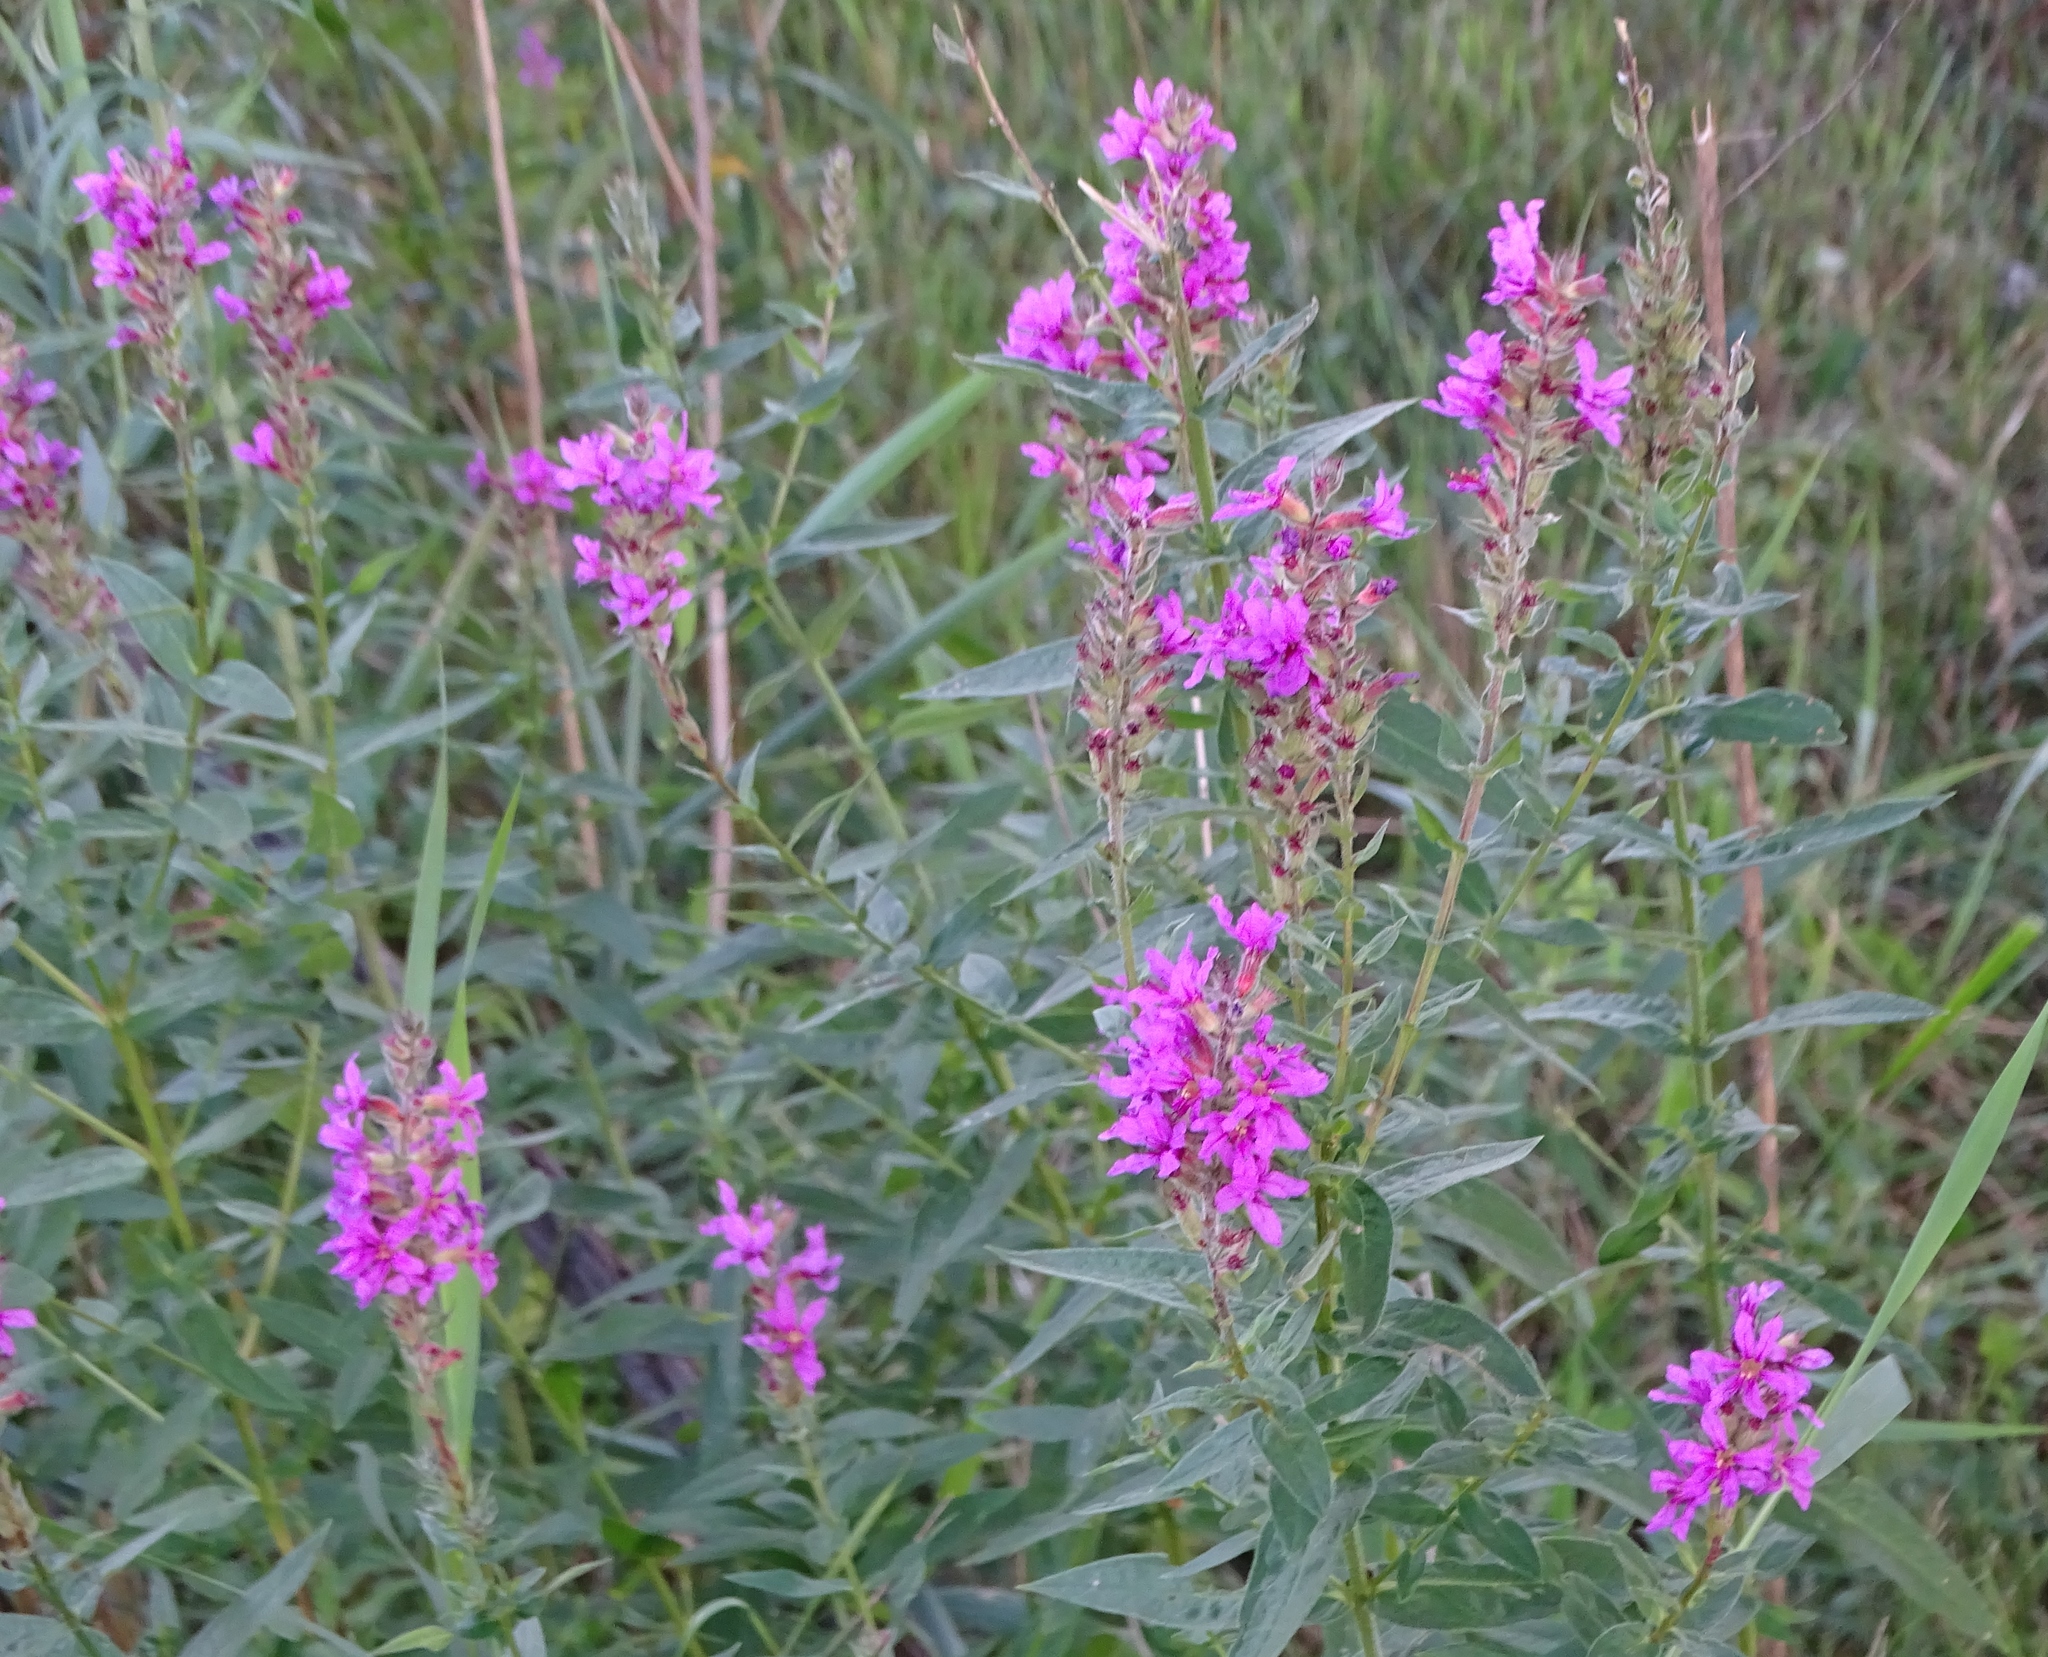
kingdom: Plantae
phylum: Tracheophyta
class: Magnoliopsida
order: Myrtales
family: Lythraceae
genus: Lythrum
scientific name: Lythrum salicaria
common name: Purple loosestrife
